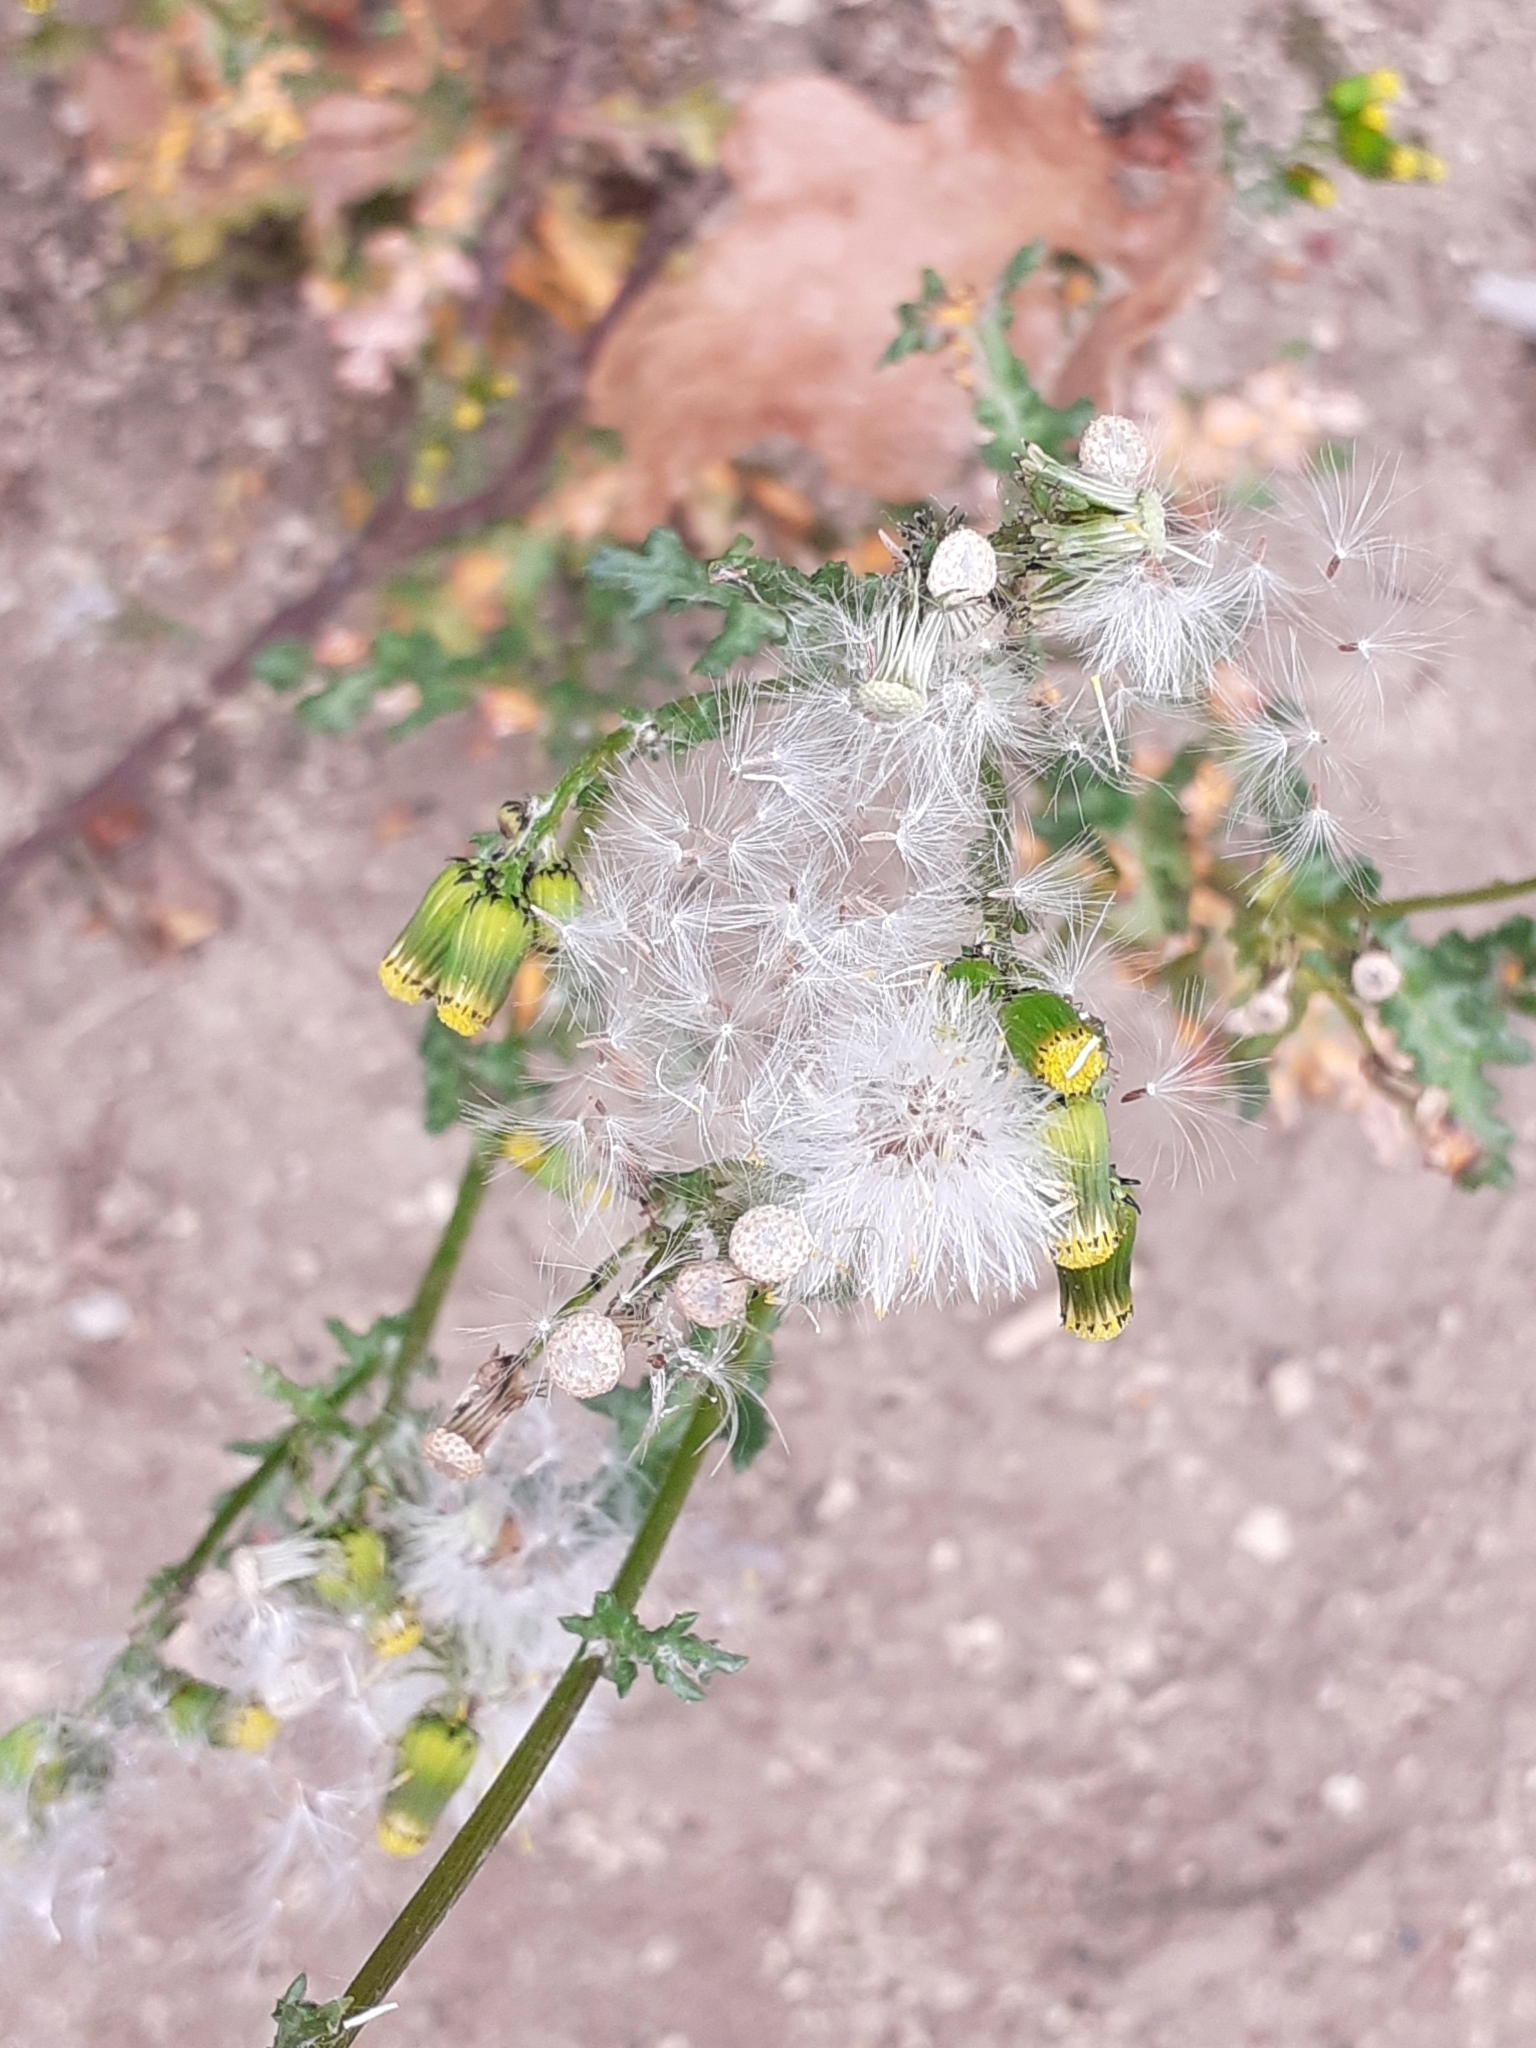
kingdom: Plantae
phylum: Tracheophyta
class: Magnoliopsida
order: Asterales
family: Asteraceae
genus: Senecio
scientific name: Senecio vulgaris
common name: Old-man-in-the-spring
